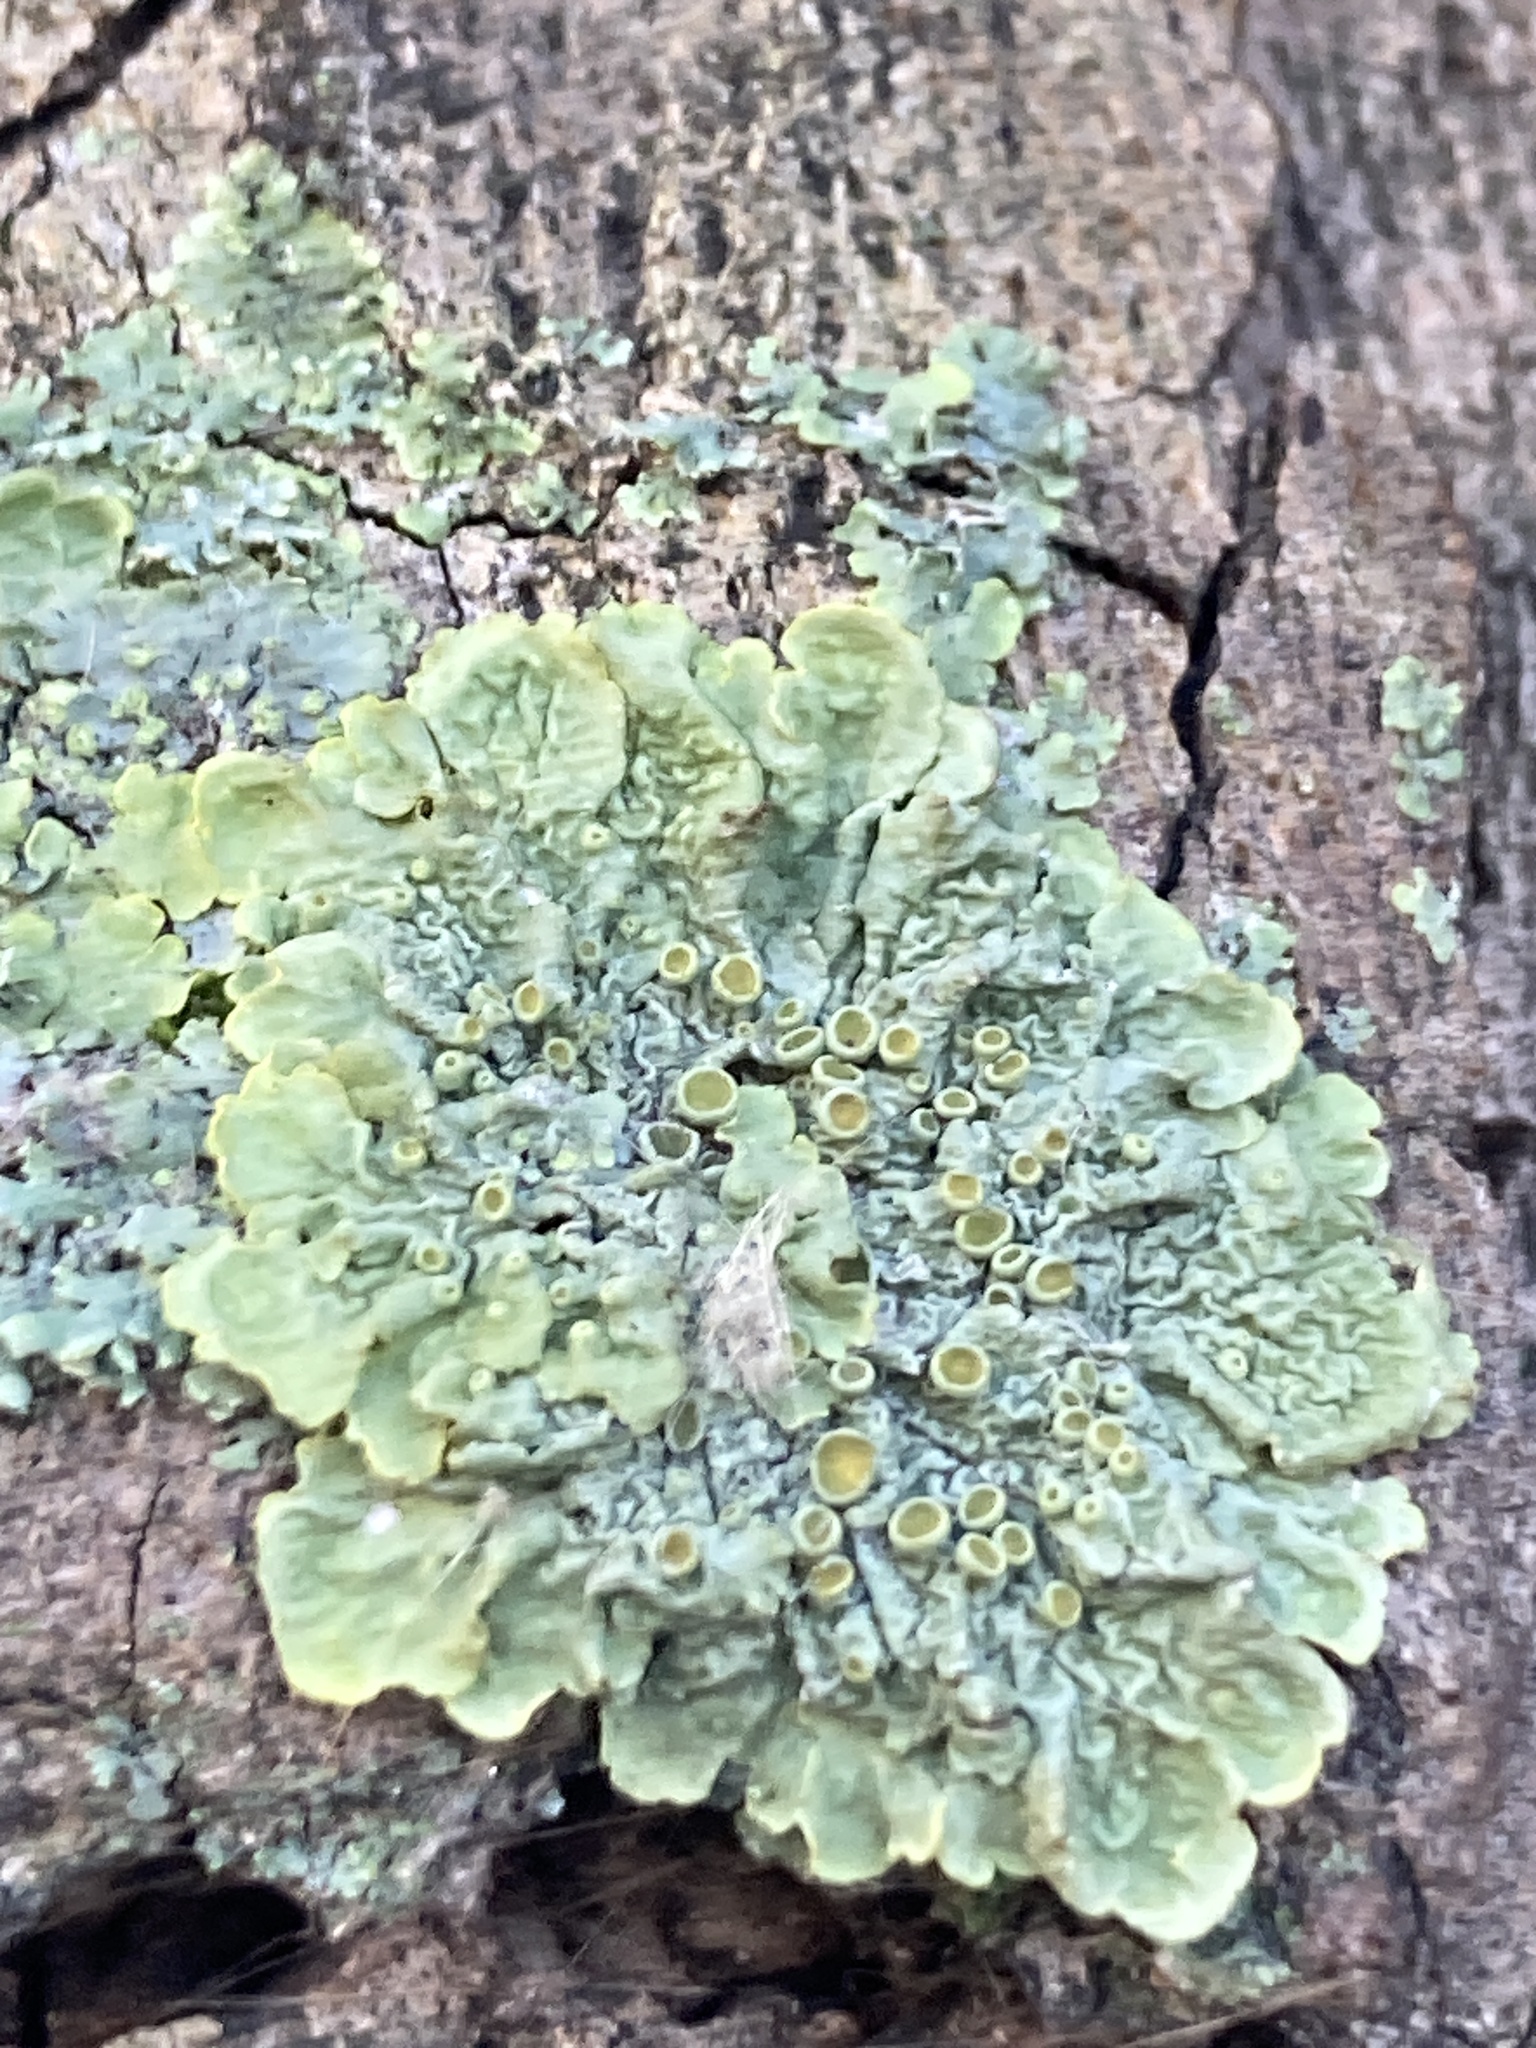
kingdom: Fungi
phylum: Ascomycota
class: Lecanoromycetes
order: Teloschistales
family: Teloschistaceae
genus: Xanthoria
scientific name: Xanthoria parietina
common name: Common orange lichen
